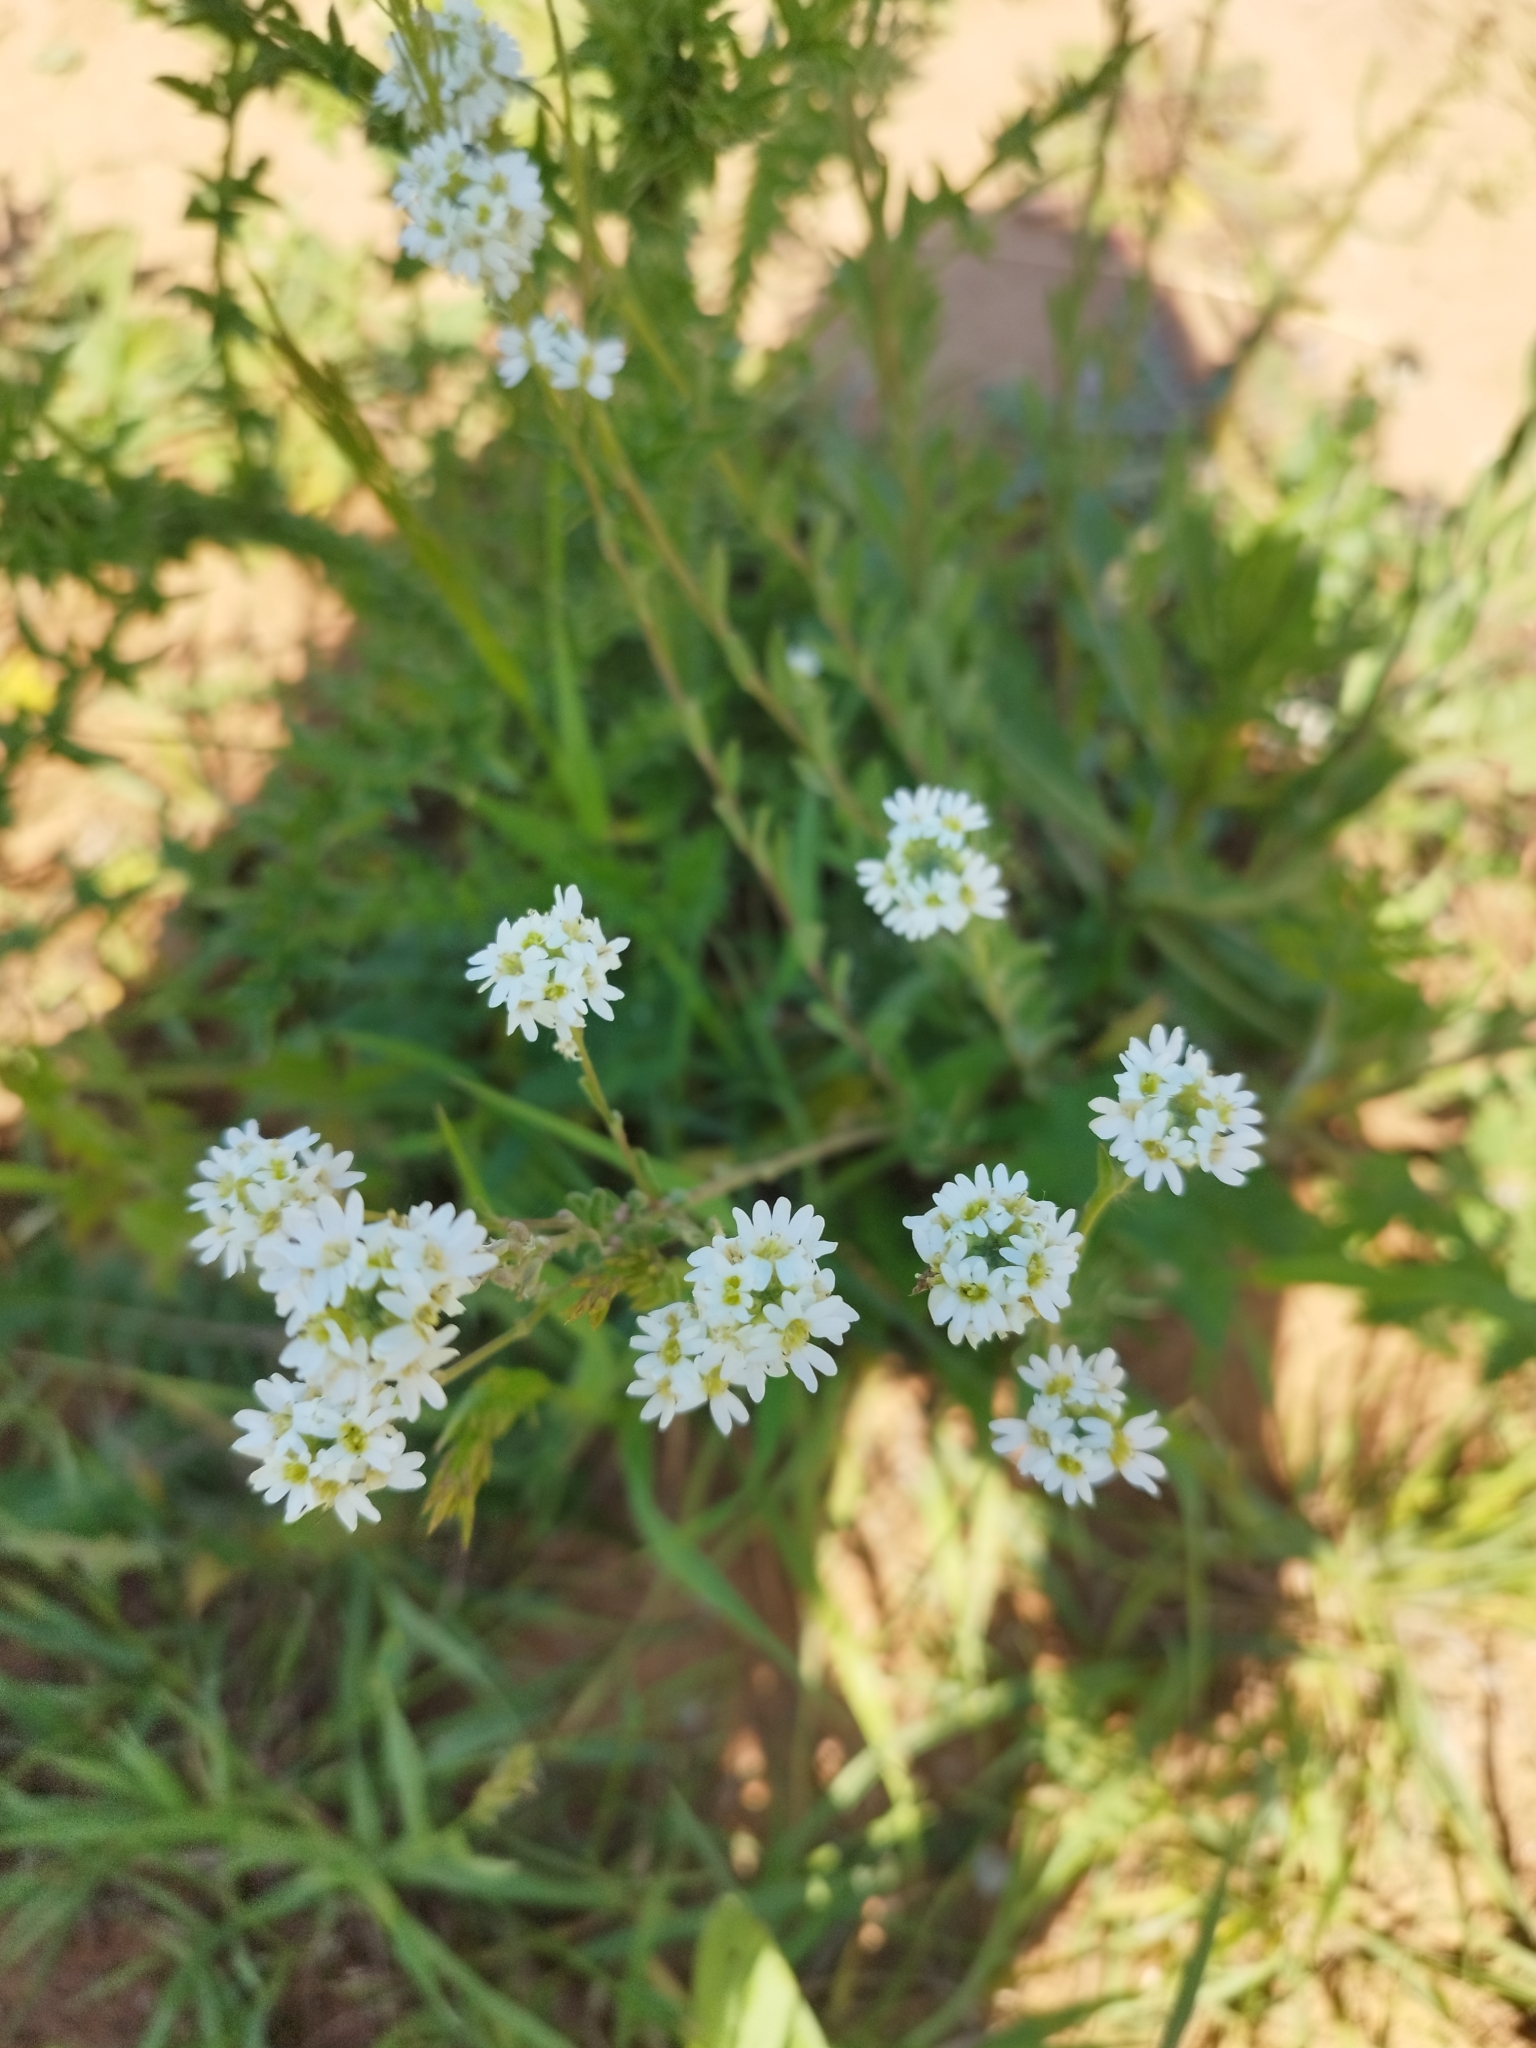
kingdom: Plantae
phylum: Tracheophyta
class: Magnoliopsida
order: Brassicales
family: Brassicaceae
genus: Berteroa
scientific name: Berteroa incana
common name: Hoary alison
